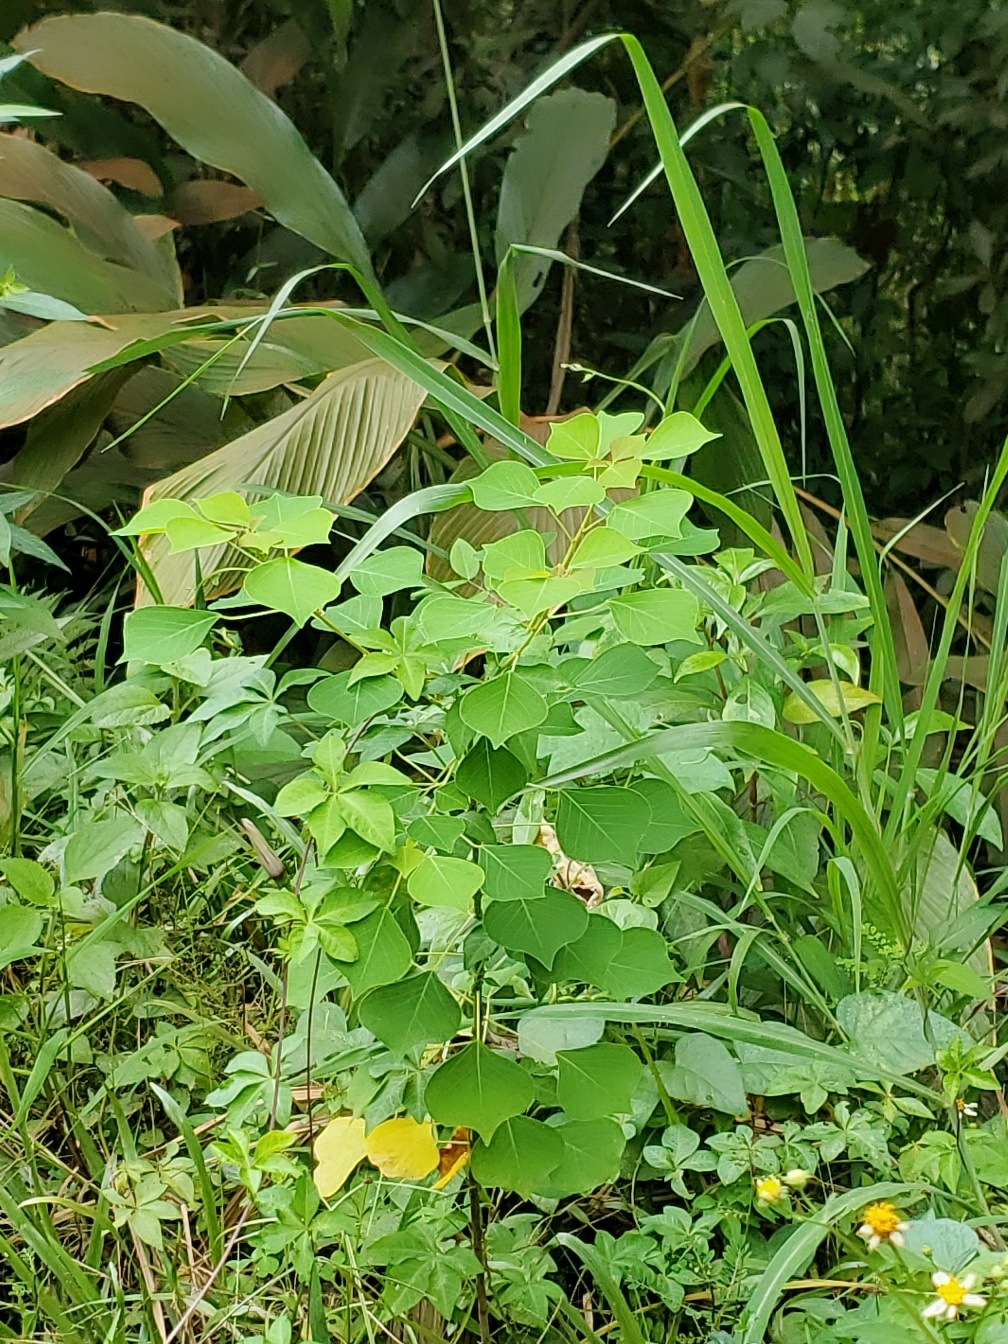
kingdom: Plantae
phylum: Tracheophyta
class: Magnoliopsida
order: Malpighiales
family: Euphorbiaceae
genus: Triadica
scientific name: Triadica sebifera
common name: Chinese tallow
